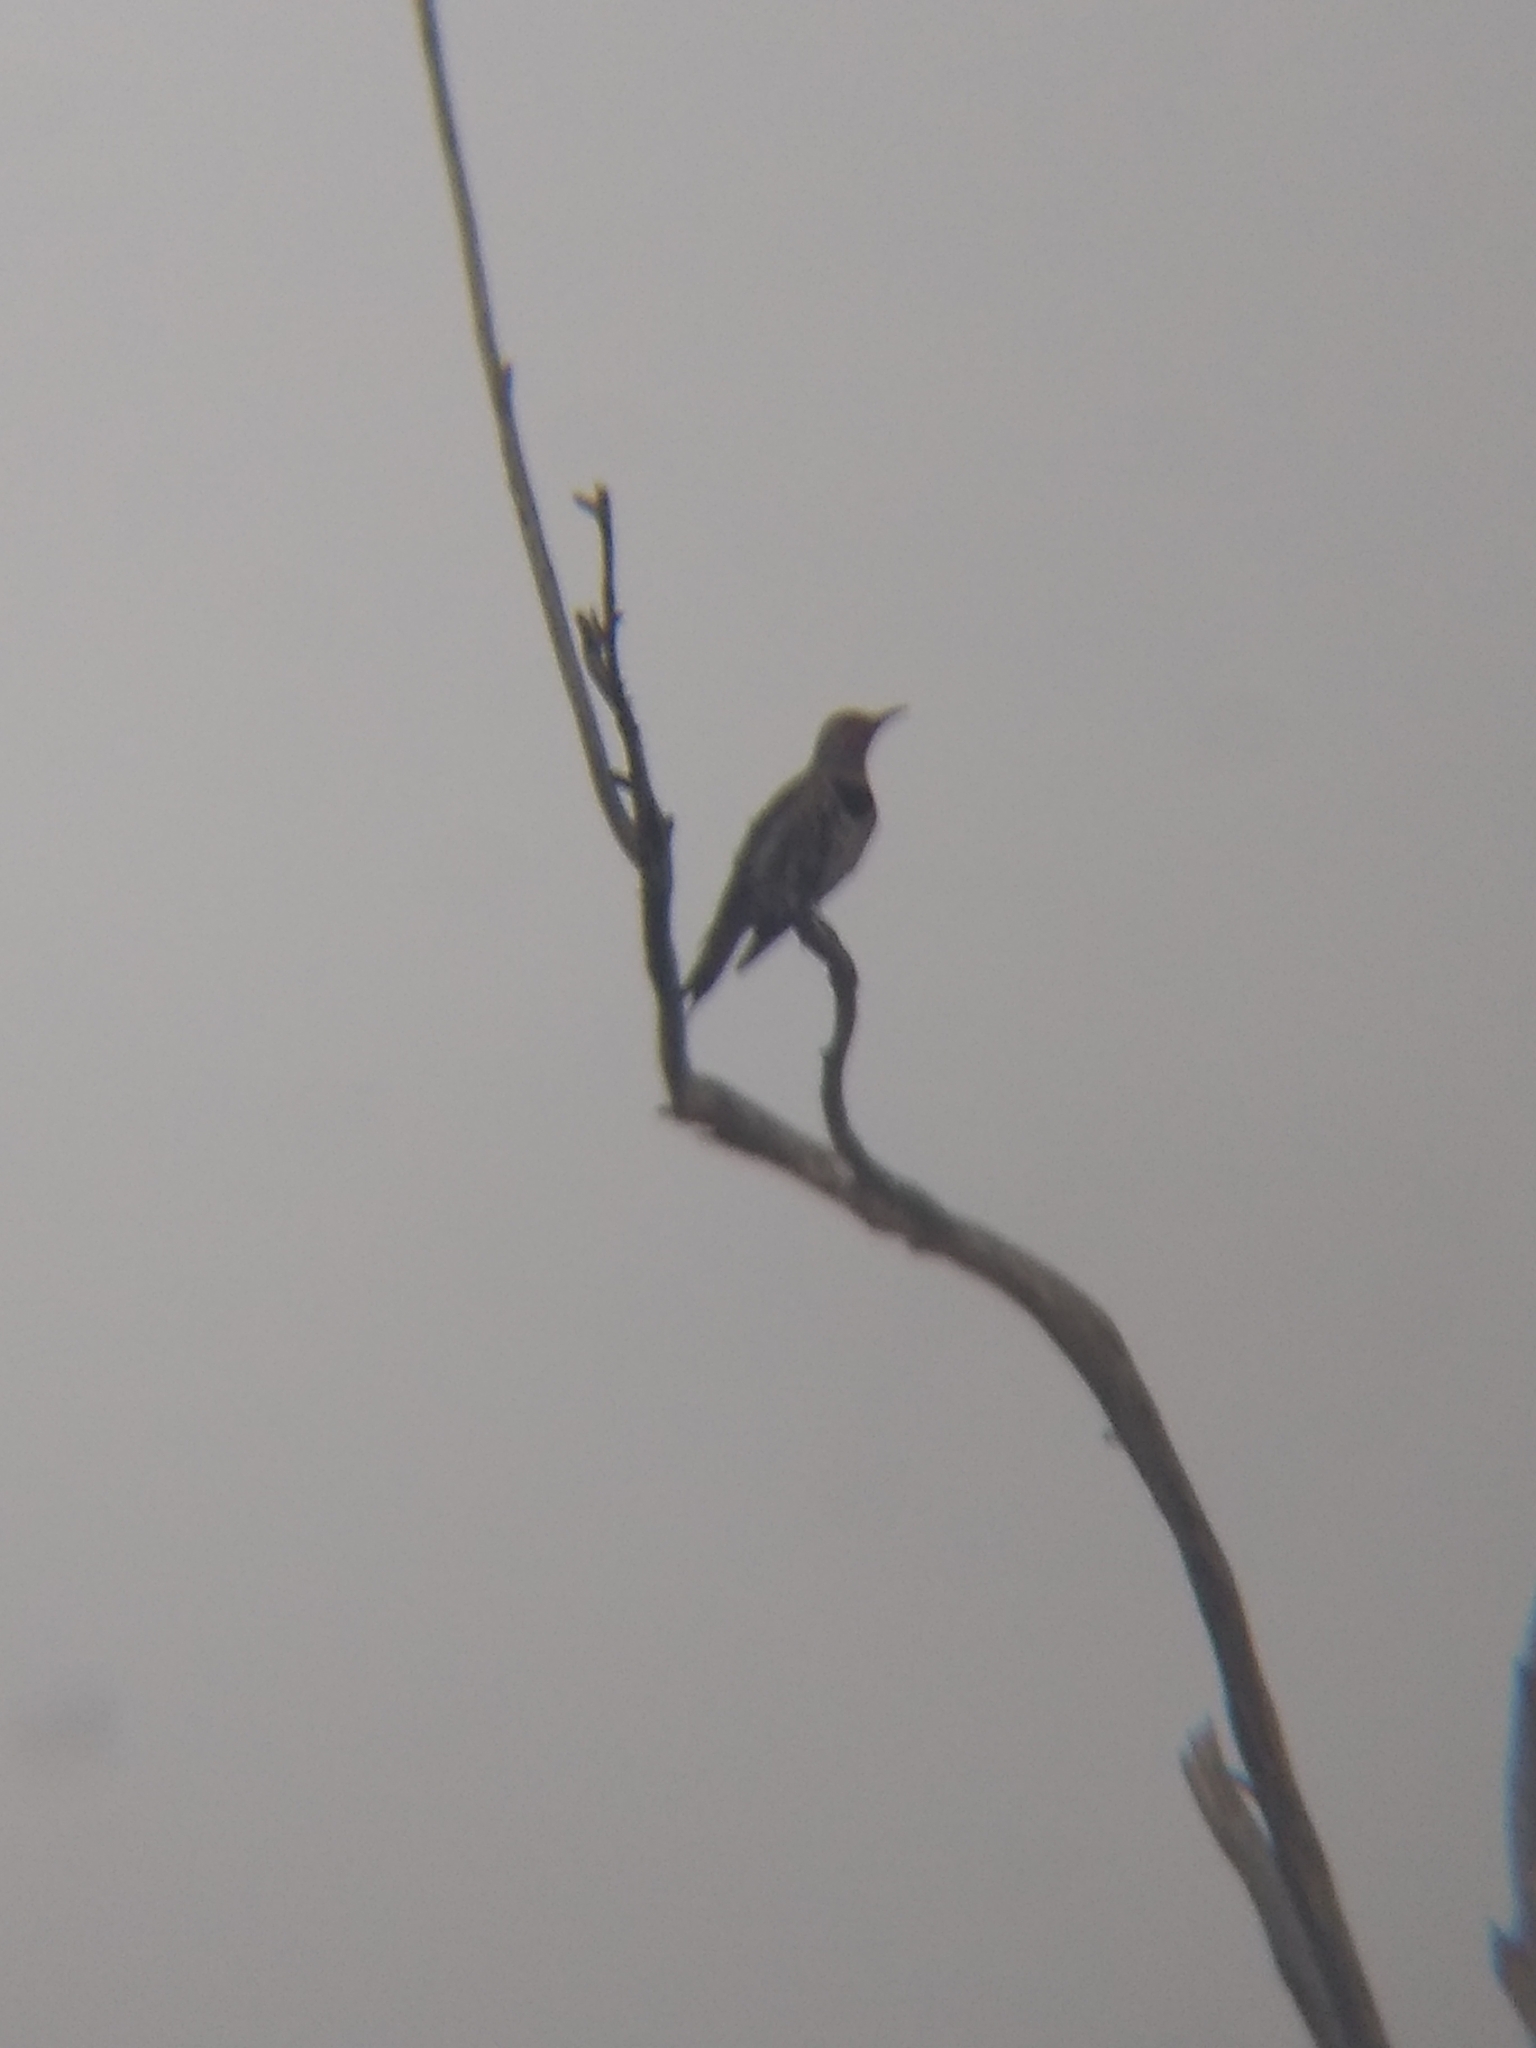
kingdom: Animalia
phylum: Chordata
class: Aves
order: Piciformes
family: Picidae
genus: Colaptes
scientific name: Colaptes auratus
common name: Northern flicker
